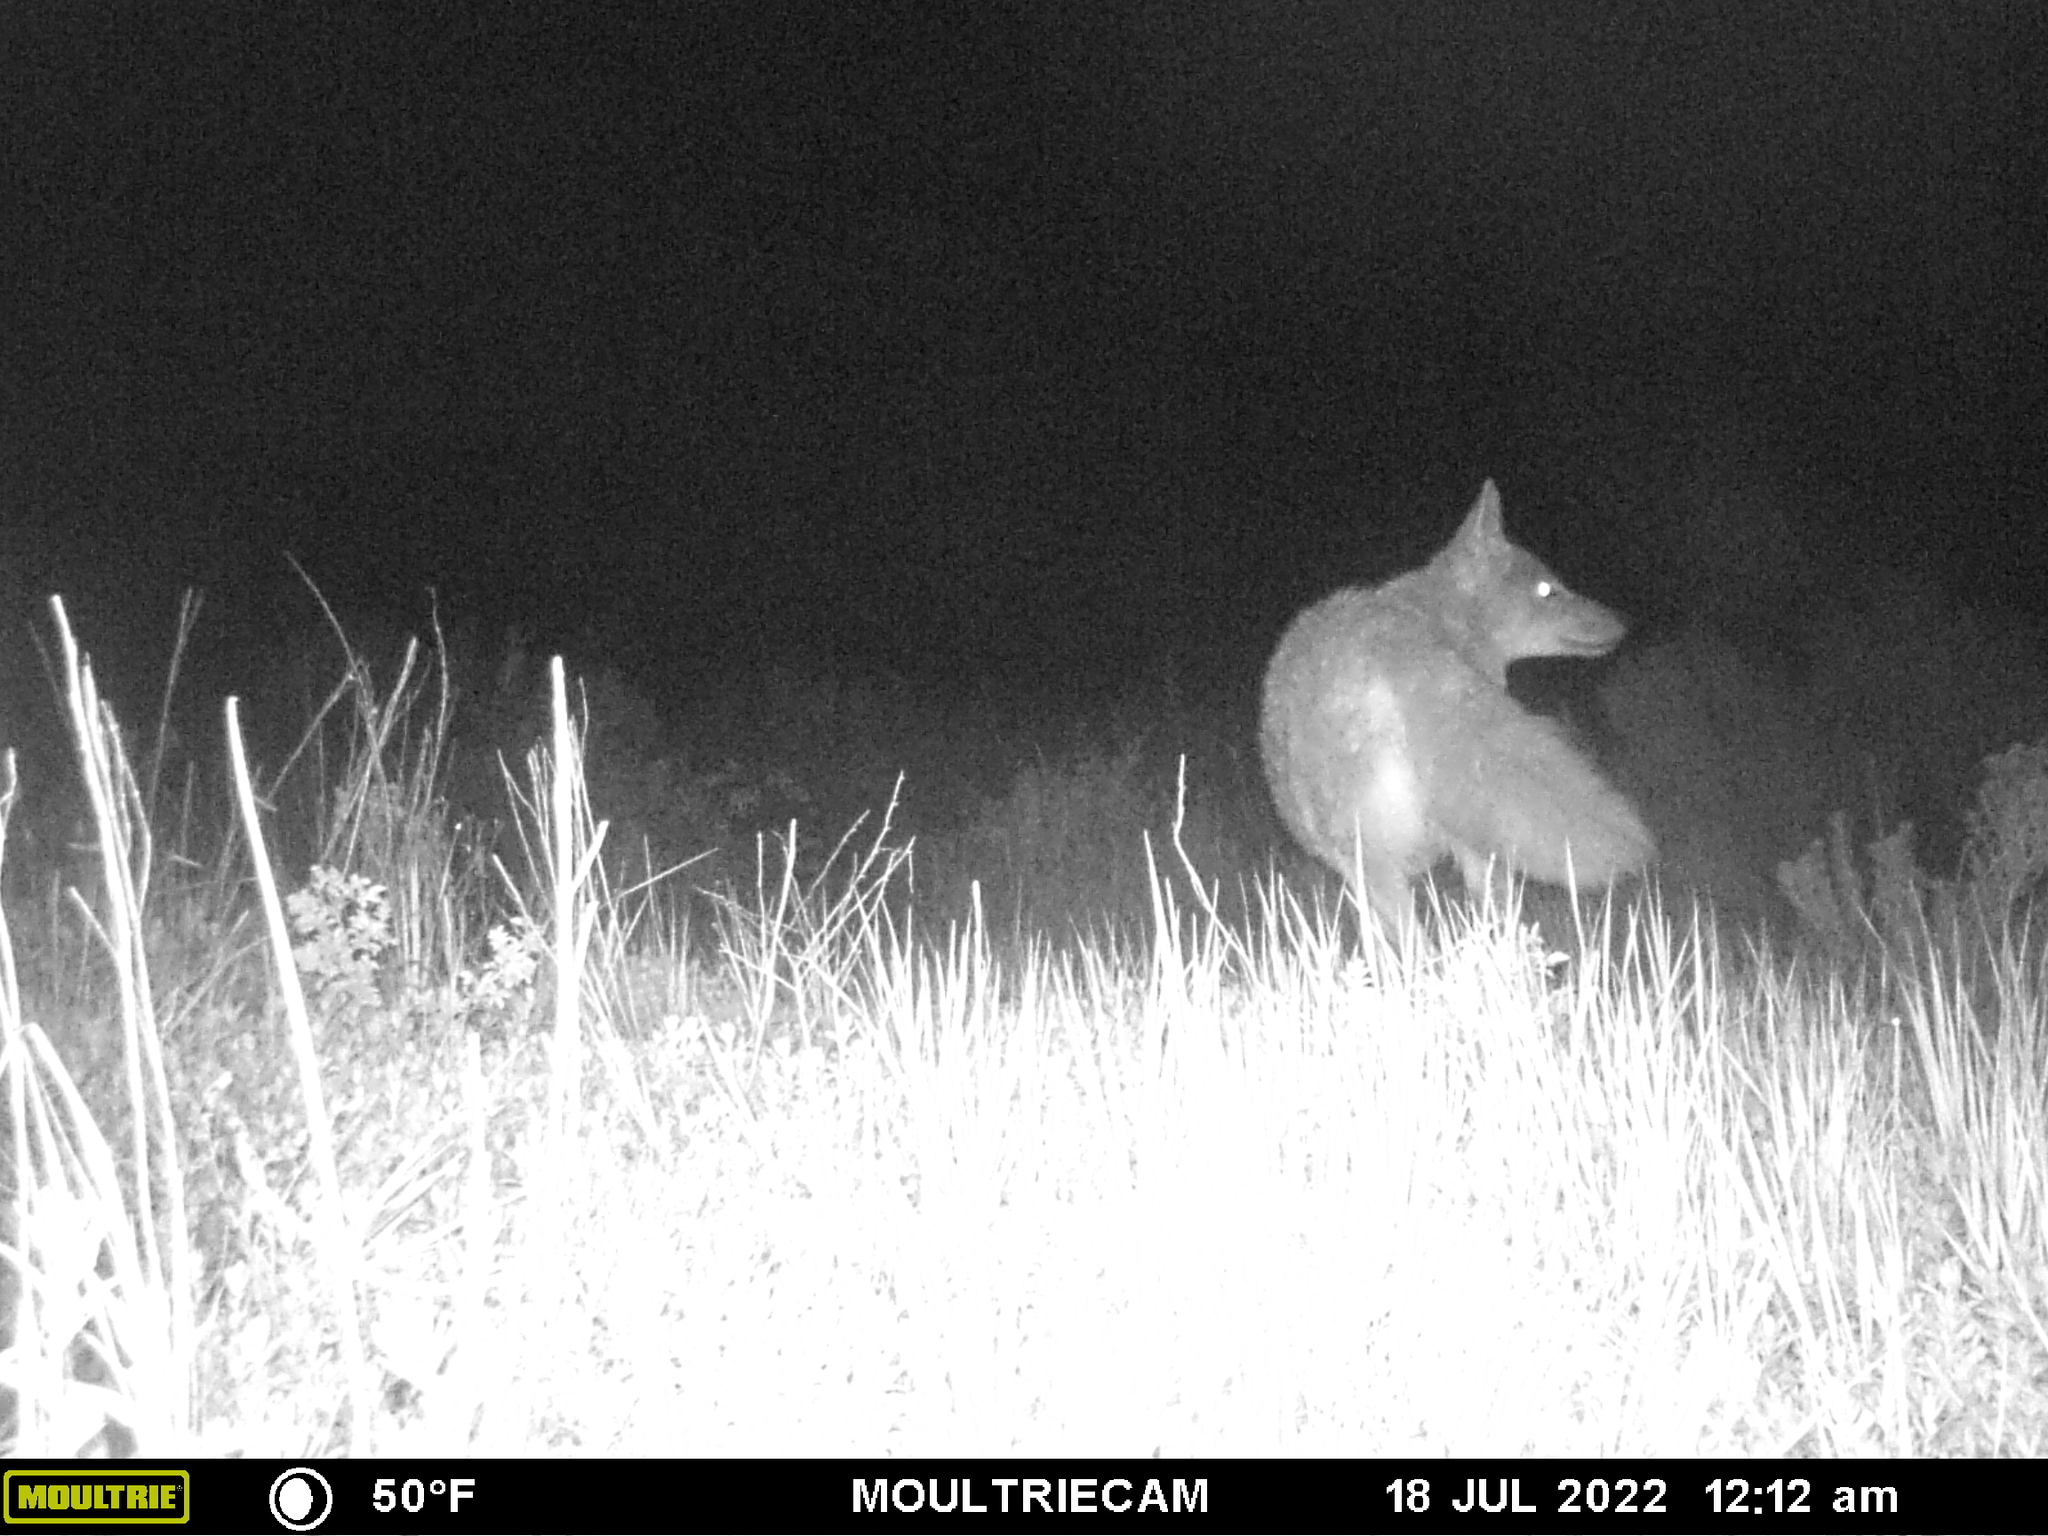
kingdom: Animalia
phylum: Chordata
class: Mammalia
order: Carnivora
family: Canidae
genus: Canis
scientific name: Canis latrans
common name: Coyote
